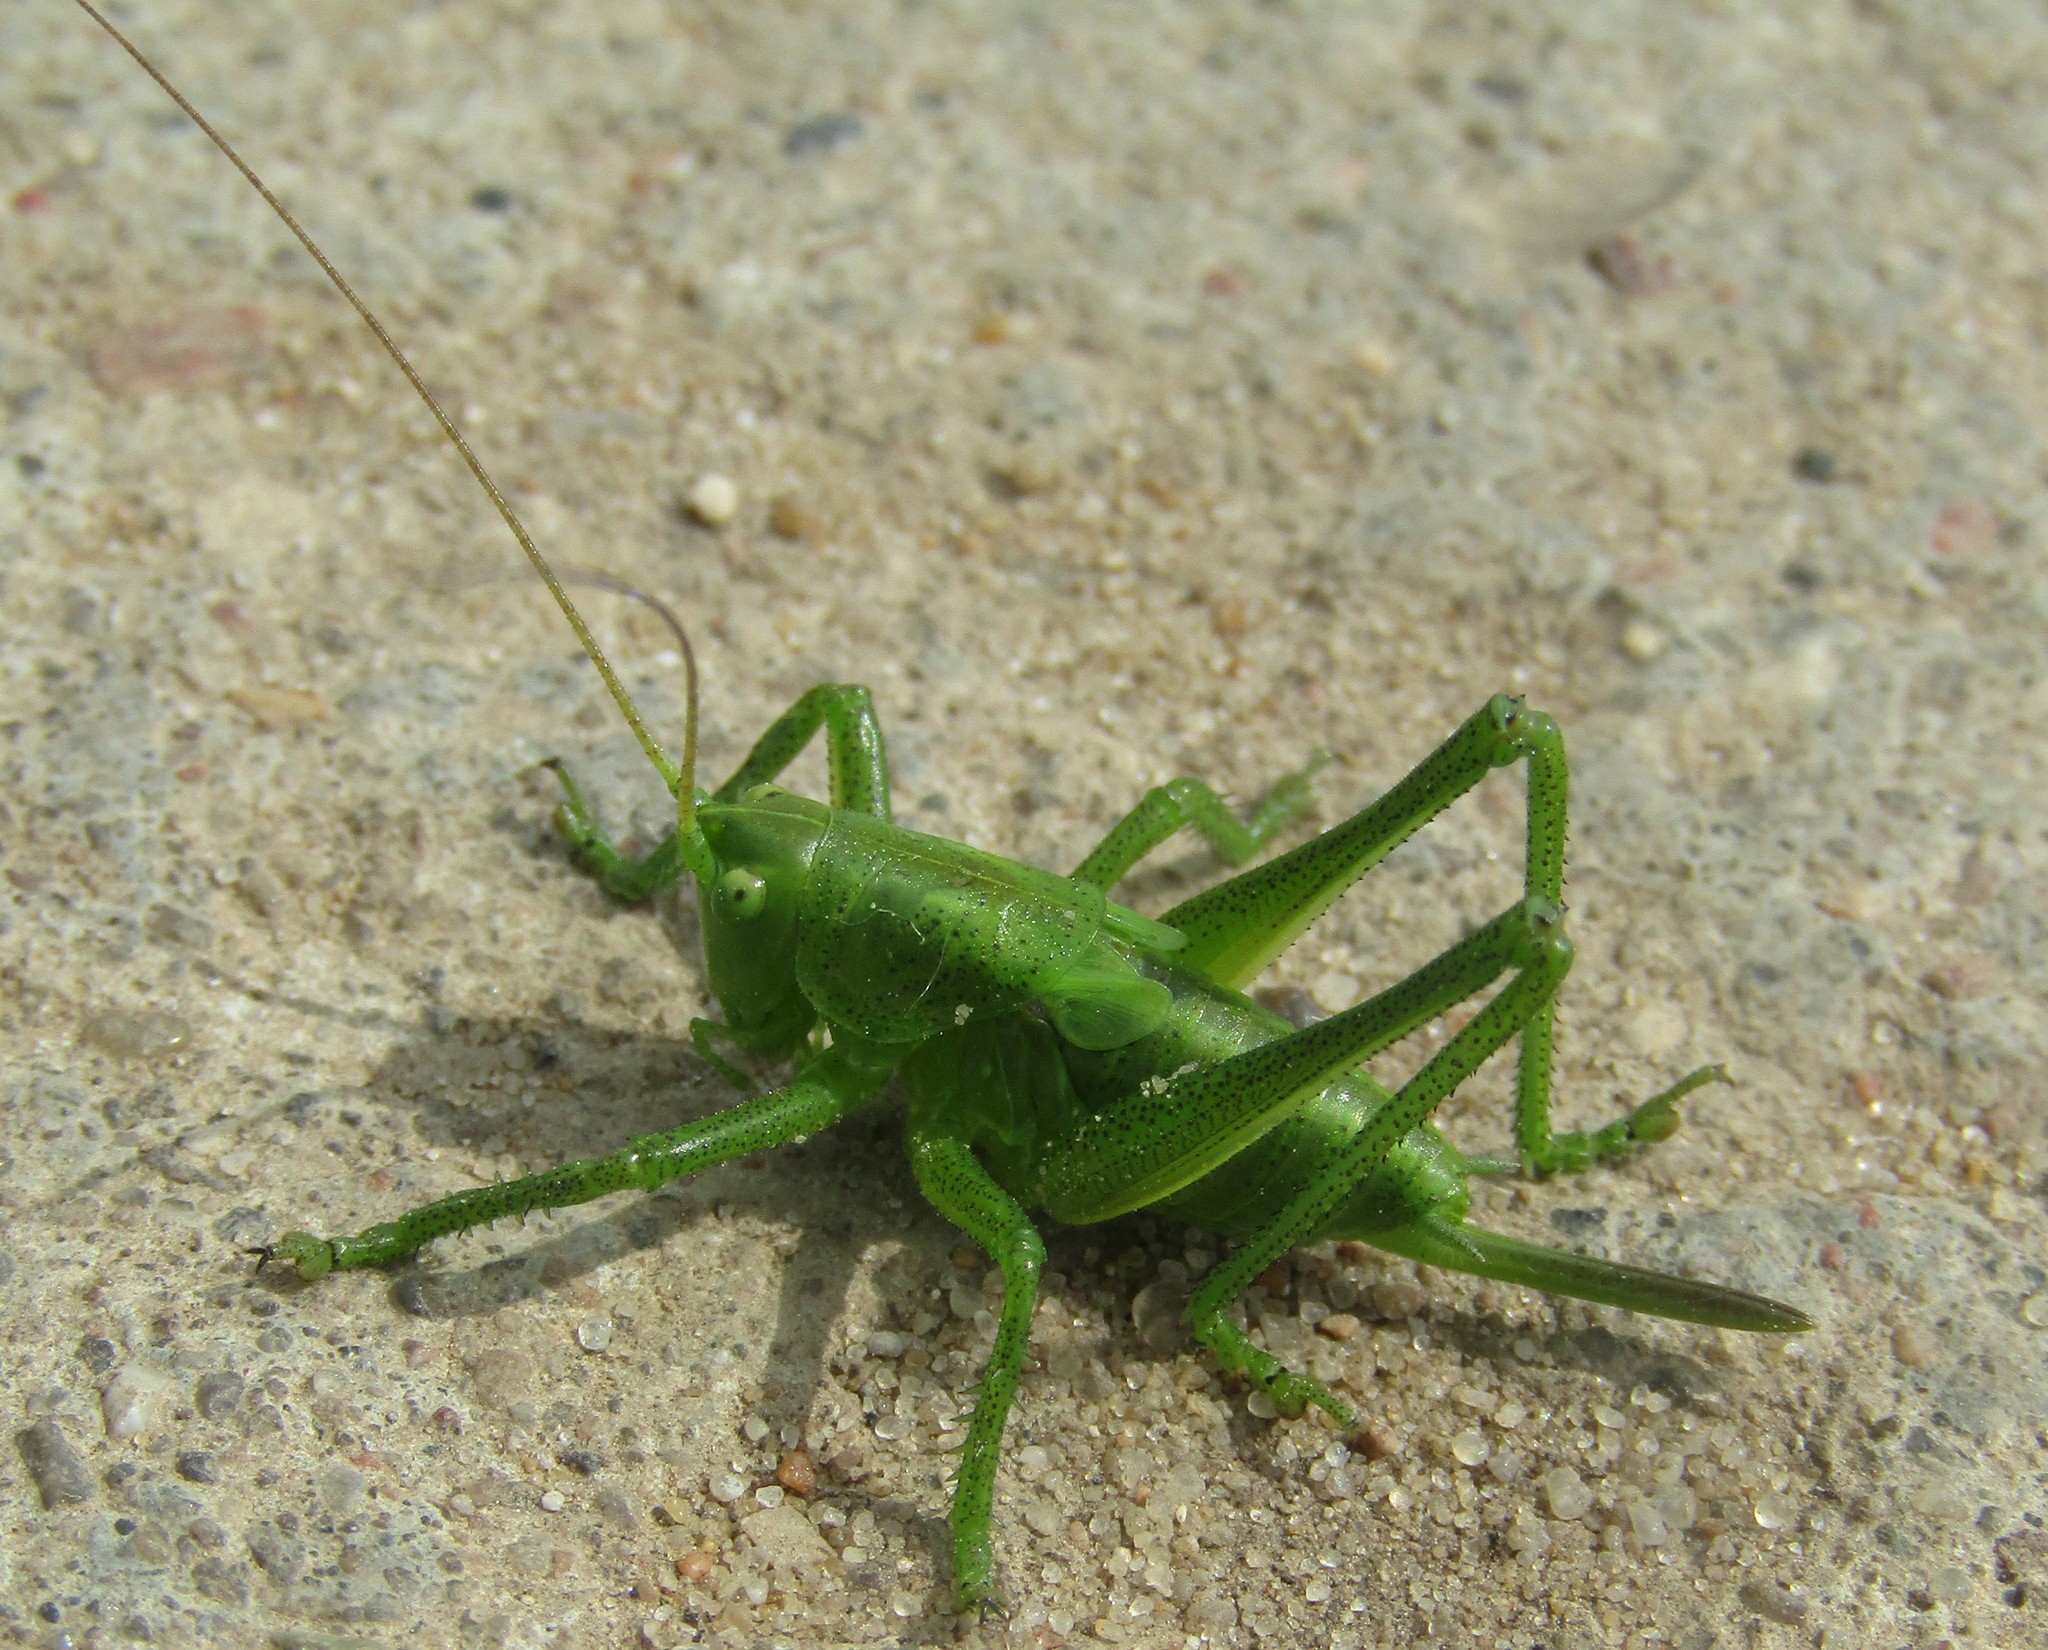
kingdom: Animalia
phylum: Arthropoda
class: Insecta
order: Orthoptera
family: Tettigoniidae
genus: Tettigonia
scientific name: Tettigonia cantans
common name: Upland green bush-cricket
